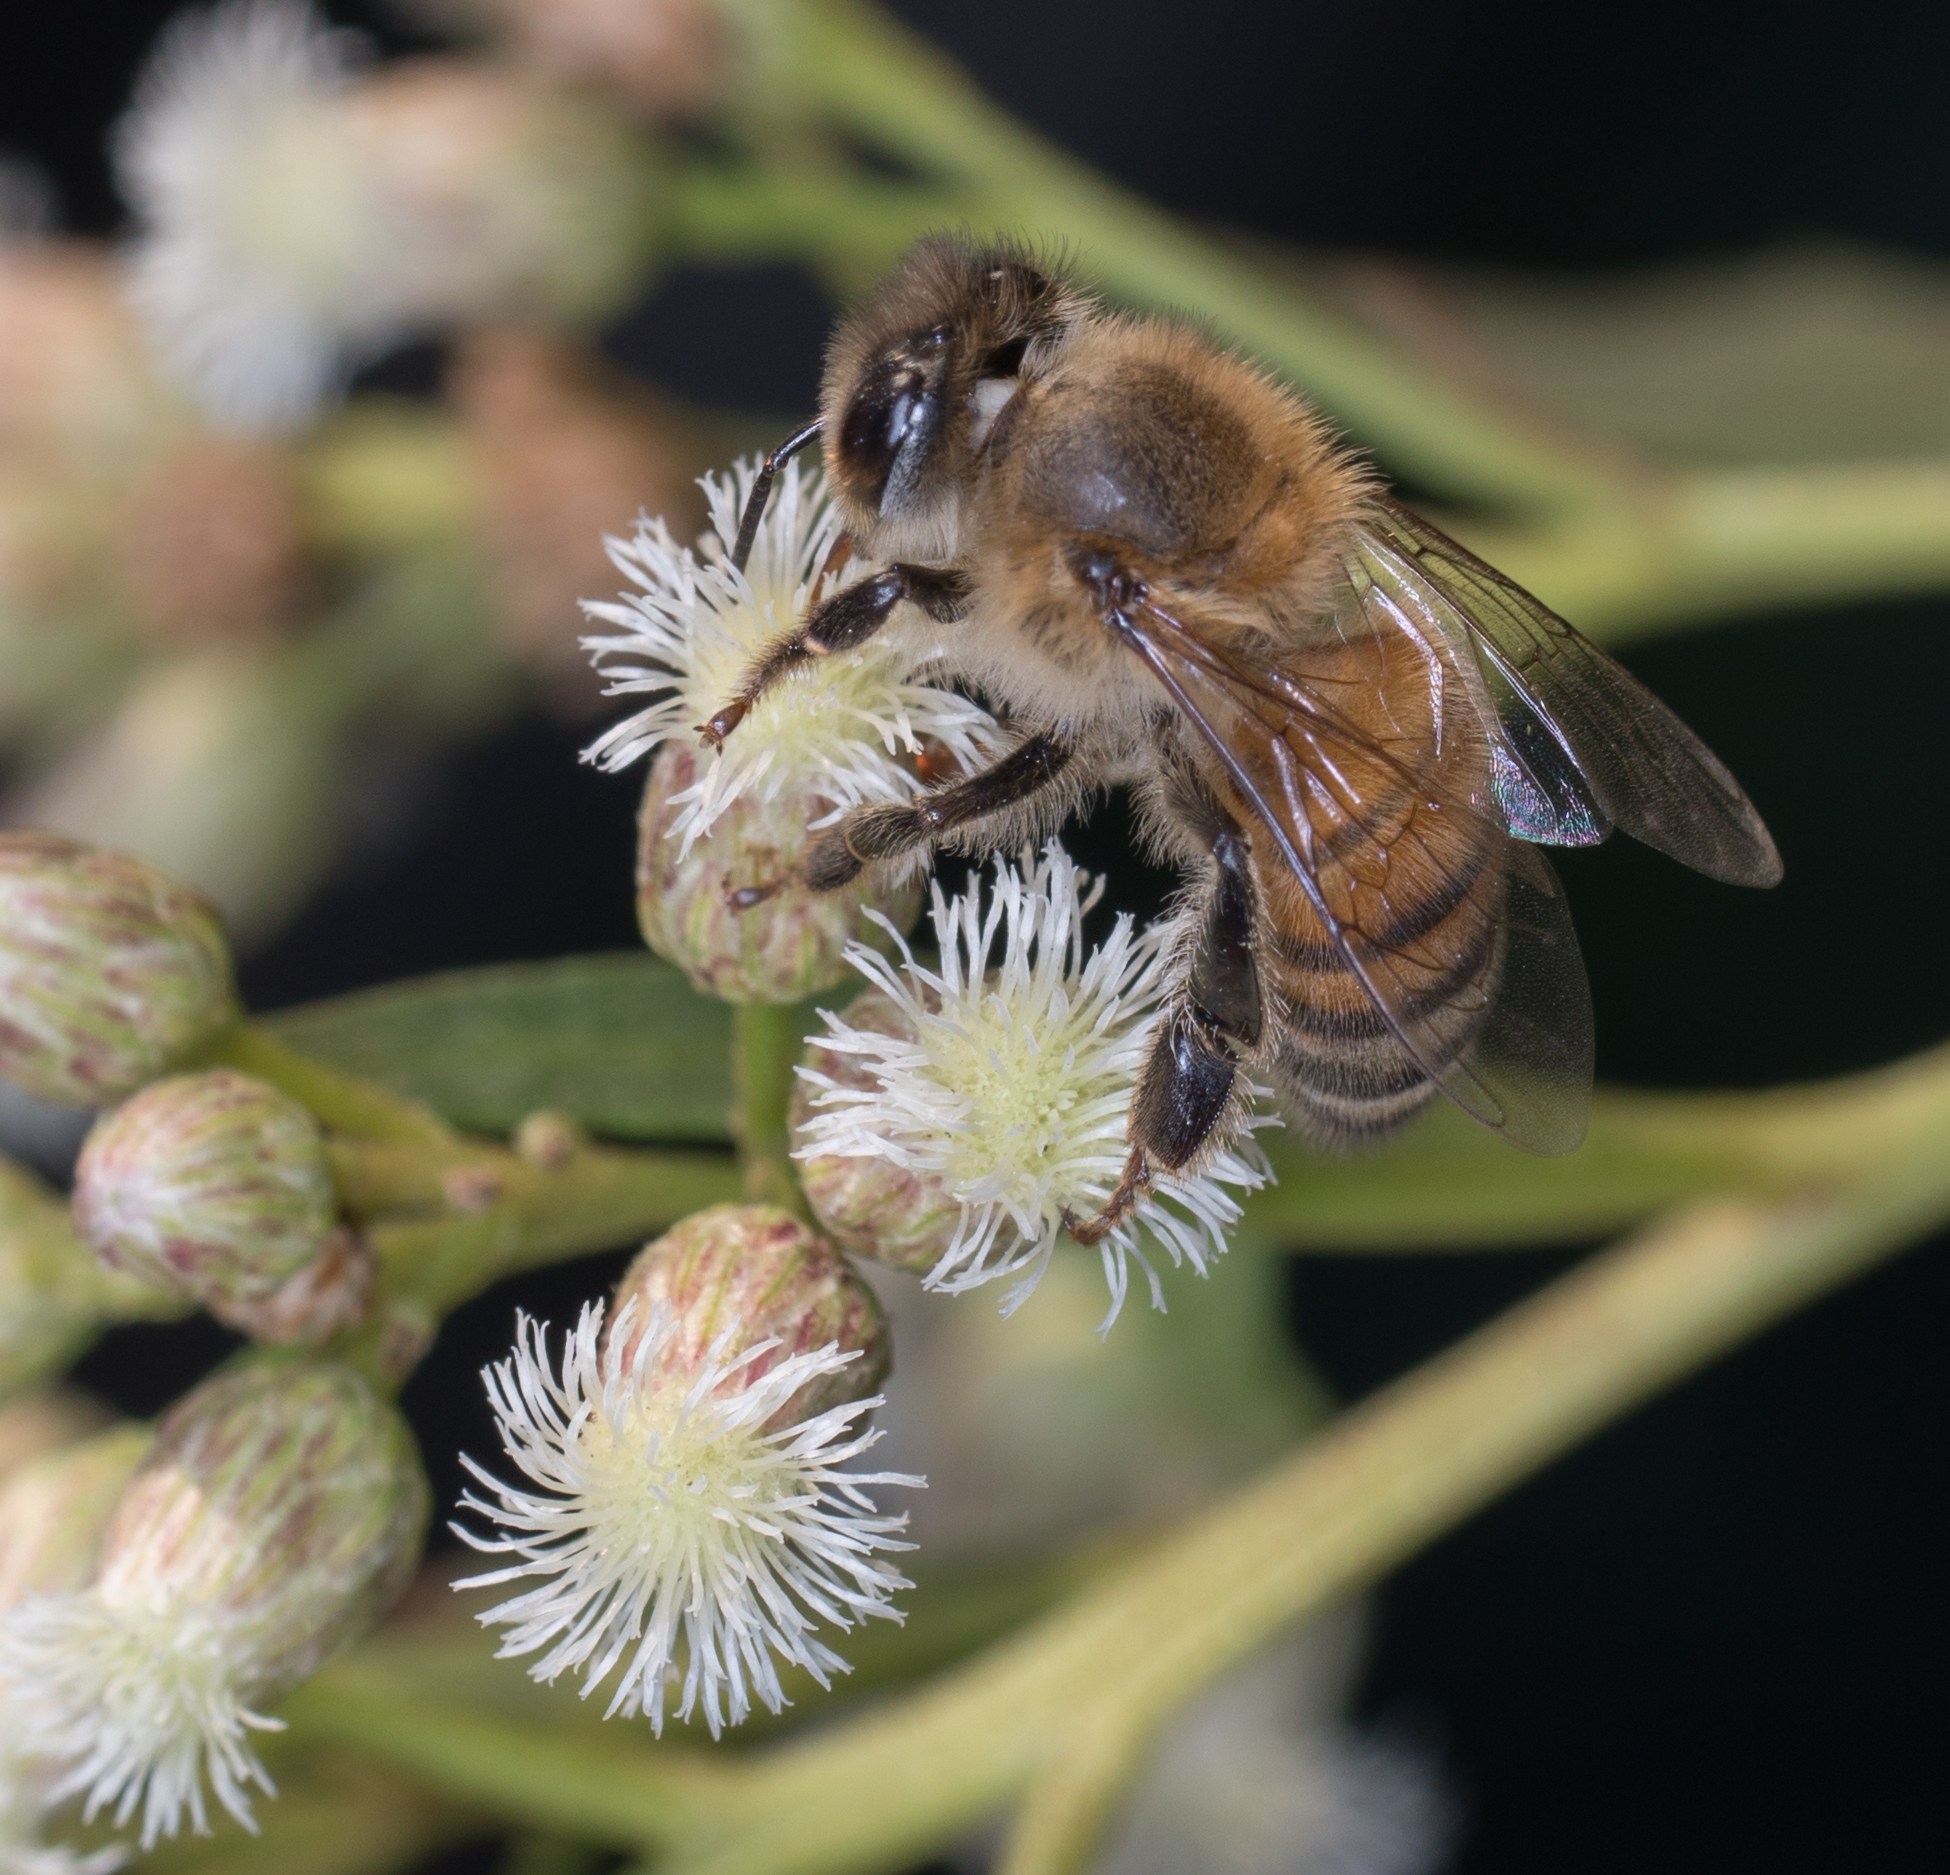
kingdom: Animalia
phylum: Arthropoda
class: Insecta
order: Hymenoptera
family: Apidae
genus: Apis
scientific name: Apis mellifera
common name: Honey bee
